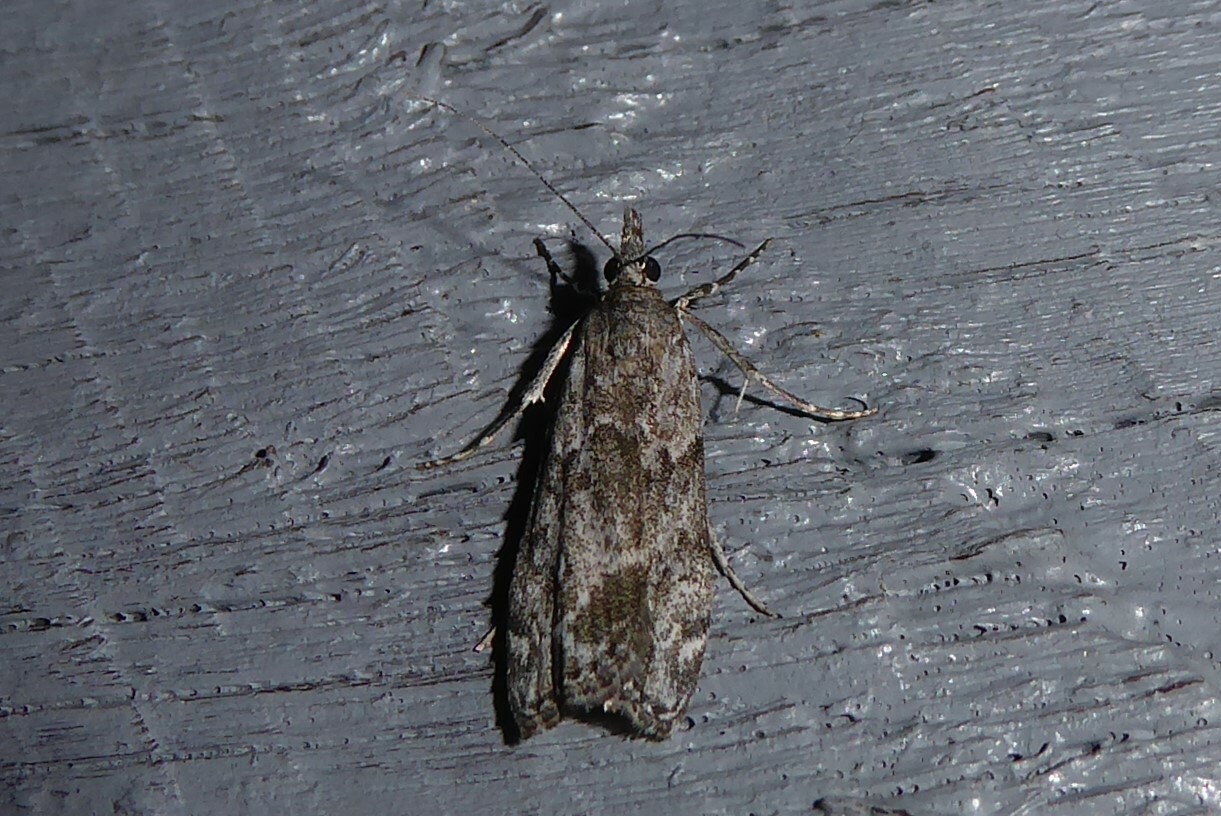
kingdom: Animalia
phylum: Arthropoda
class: Insecta
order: Lepidoptera
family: Crambidae
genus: Eudonia
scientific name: Eudonia rakaiensis
